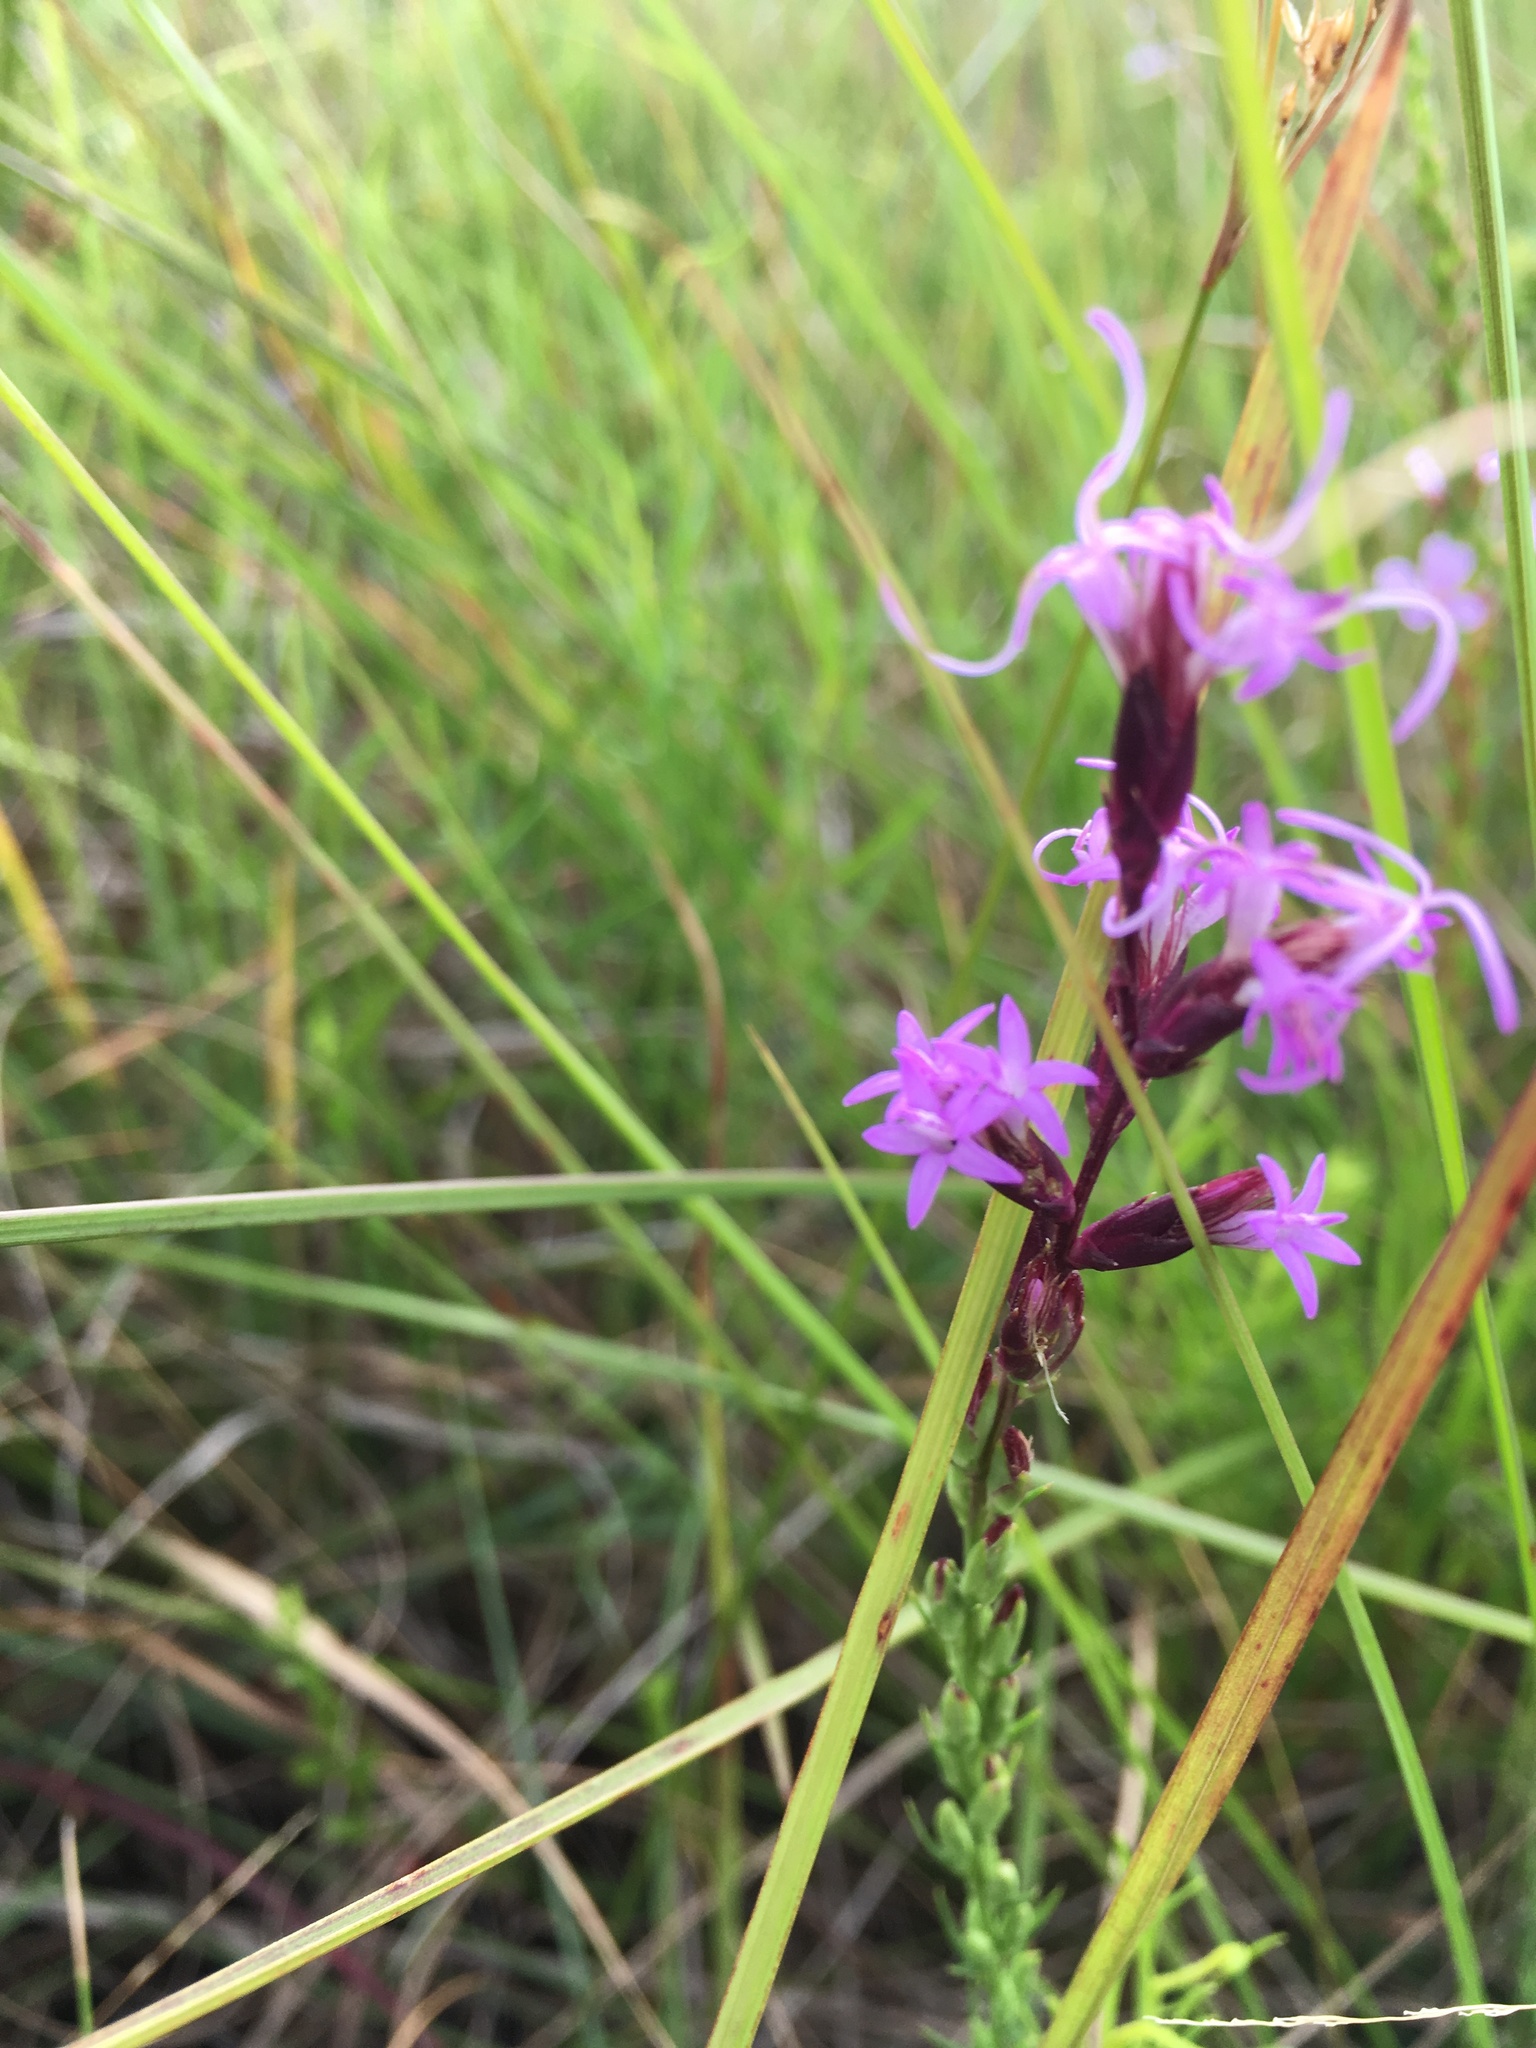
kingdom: Plantae
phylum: Tracheophyta
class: Magnoliopsida
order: Asterales
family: Asteraceae
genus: Liatris
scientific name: Liatris acidota
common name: Gulf coast gayfeather
